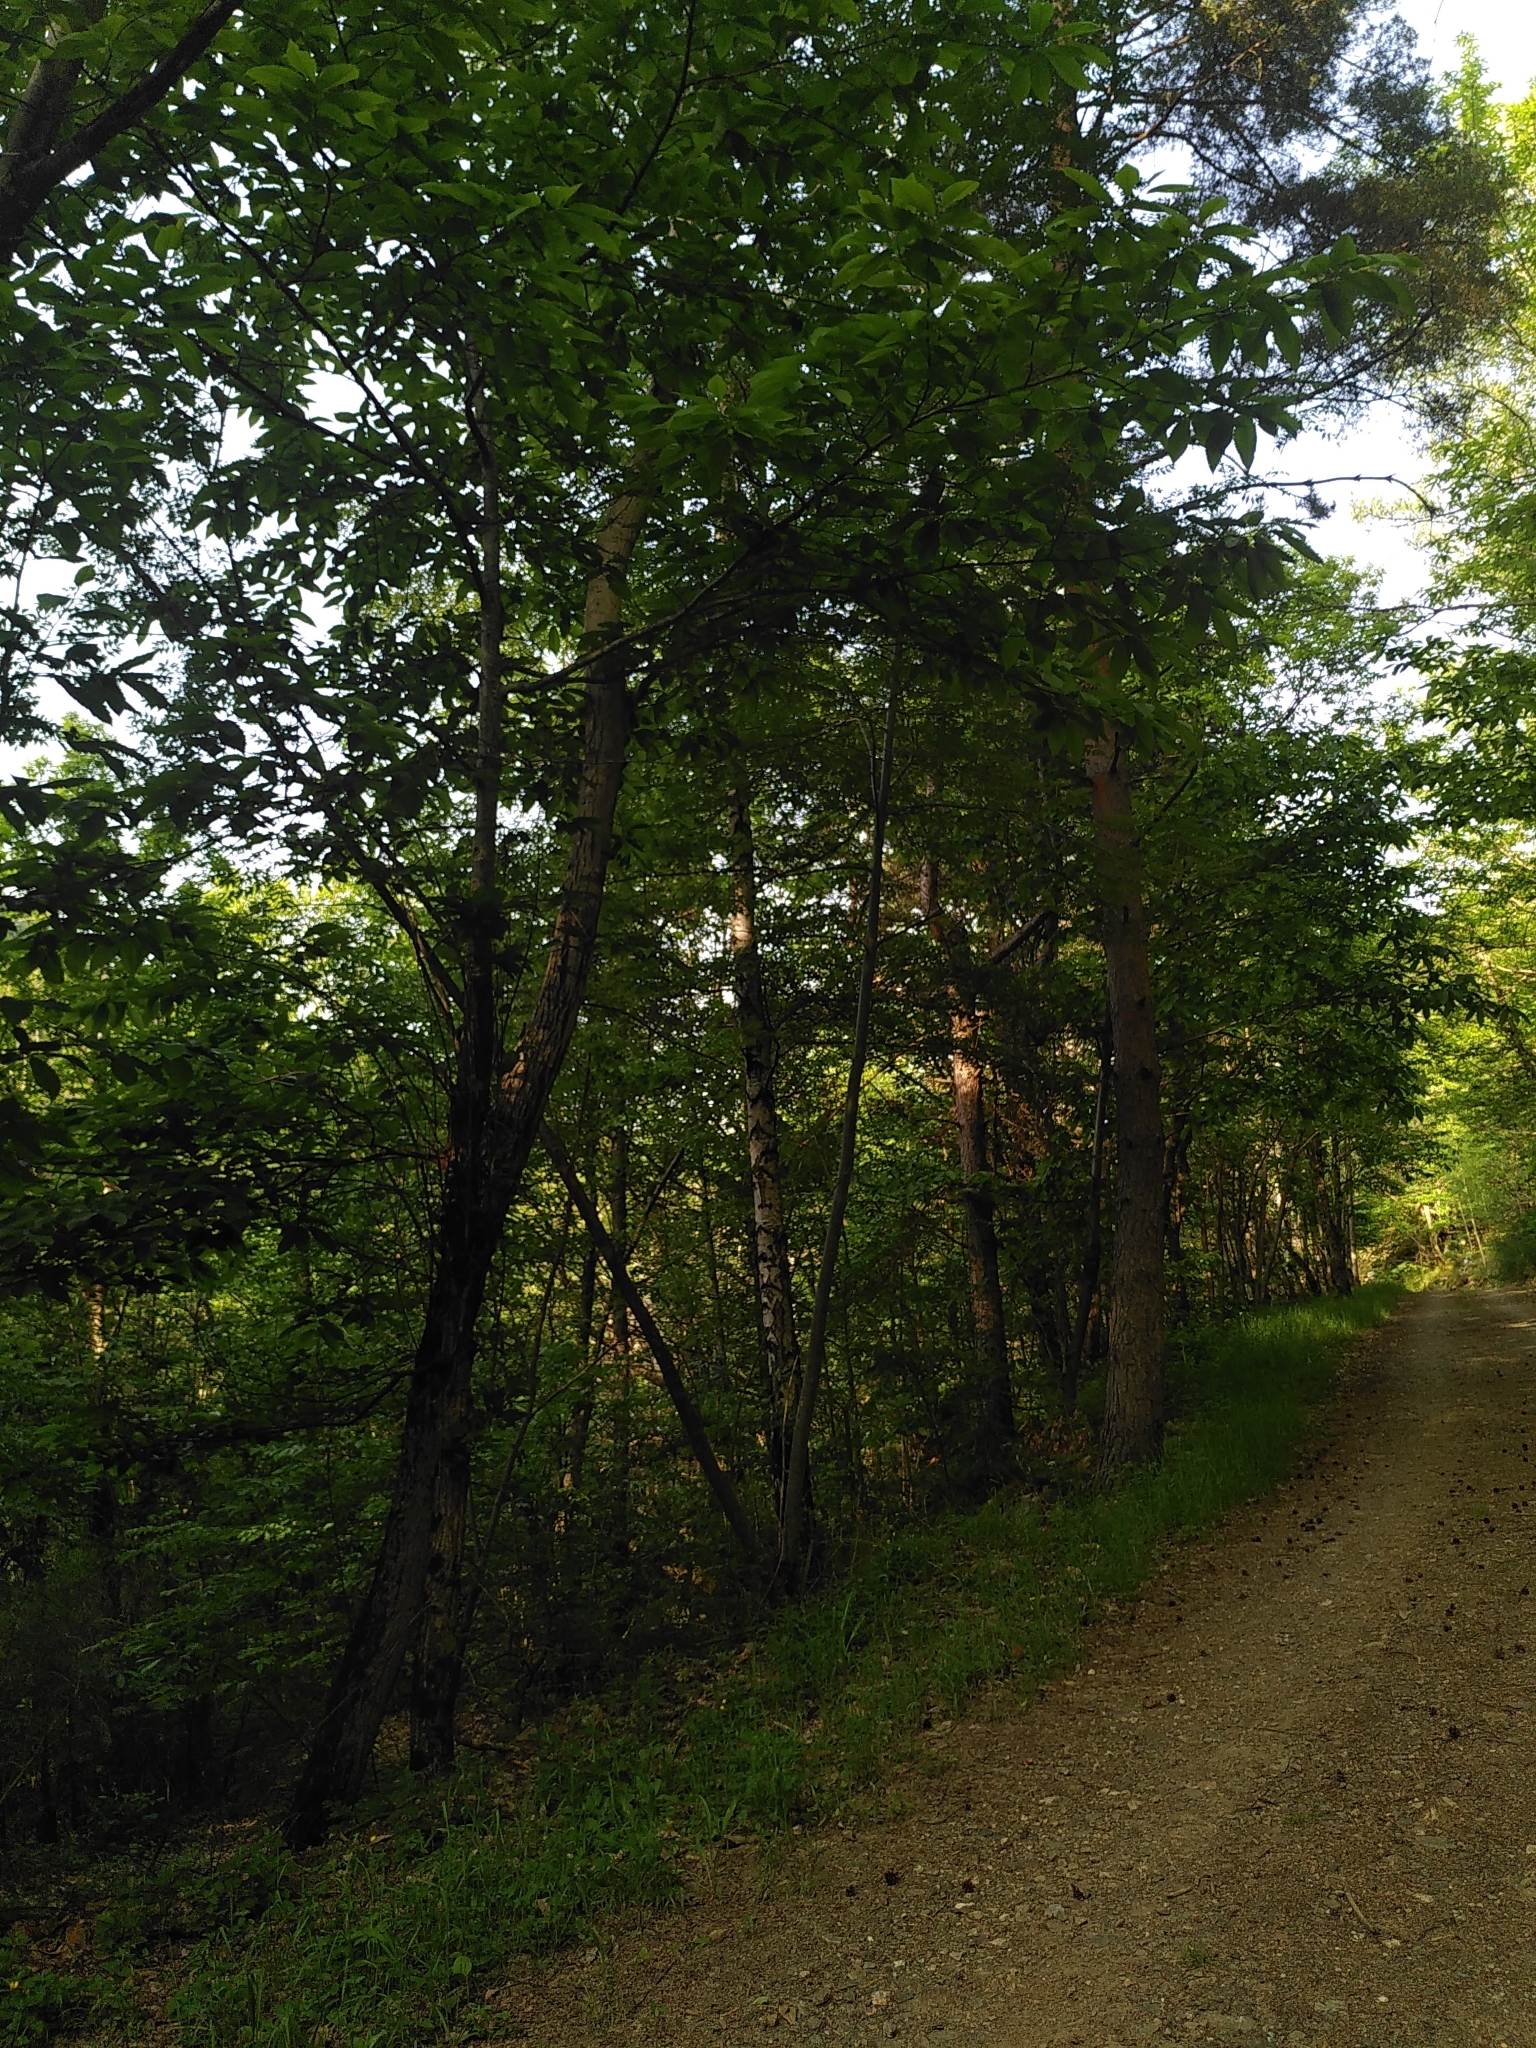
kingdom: Plantae
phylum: Tracheophyta
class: Magnoliopsida
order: Fagales
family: Fagaceae
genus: Castanea
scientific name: Castanea sativa
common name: Sweet chestnut
